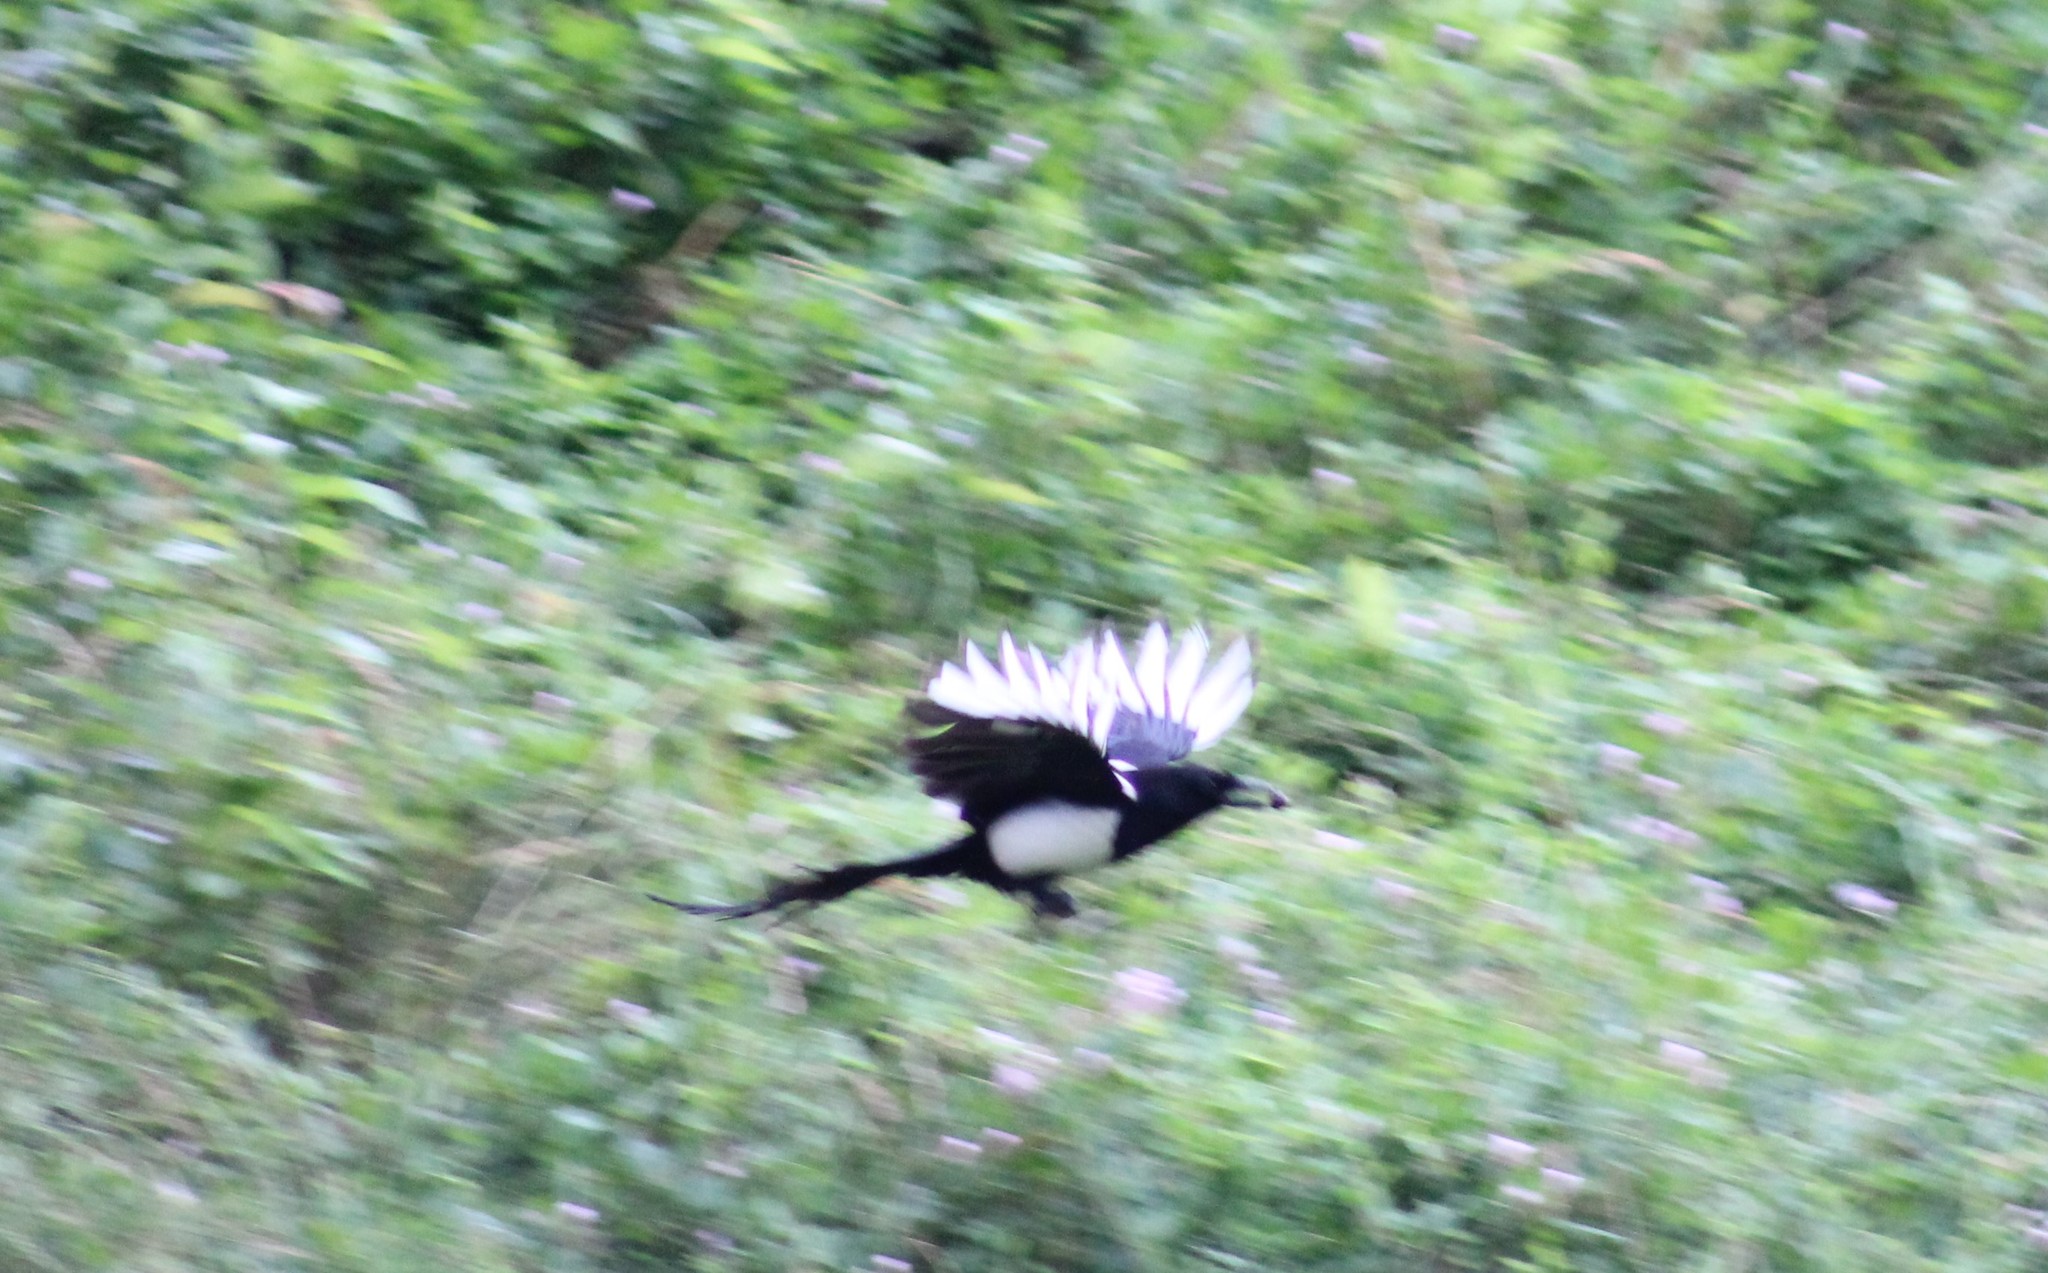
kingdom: Animalia
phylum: Chordata
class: Aves
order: Passeriformes
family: Corvidae
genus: Pica
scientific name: Pica pica
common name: Eurasian magpie
